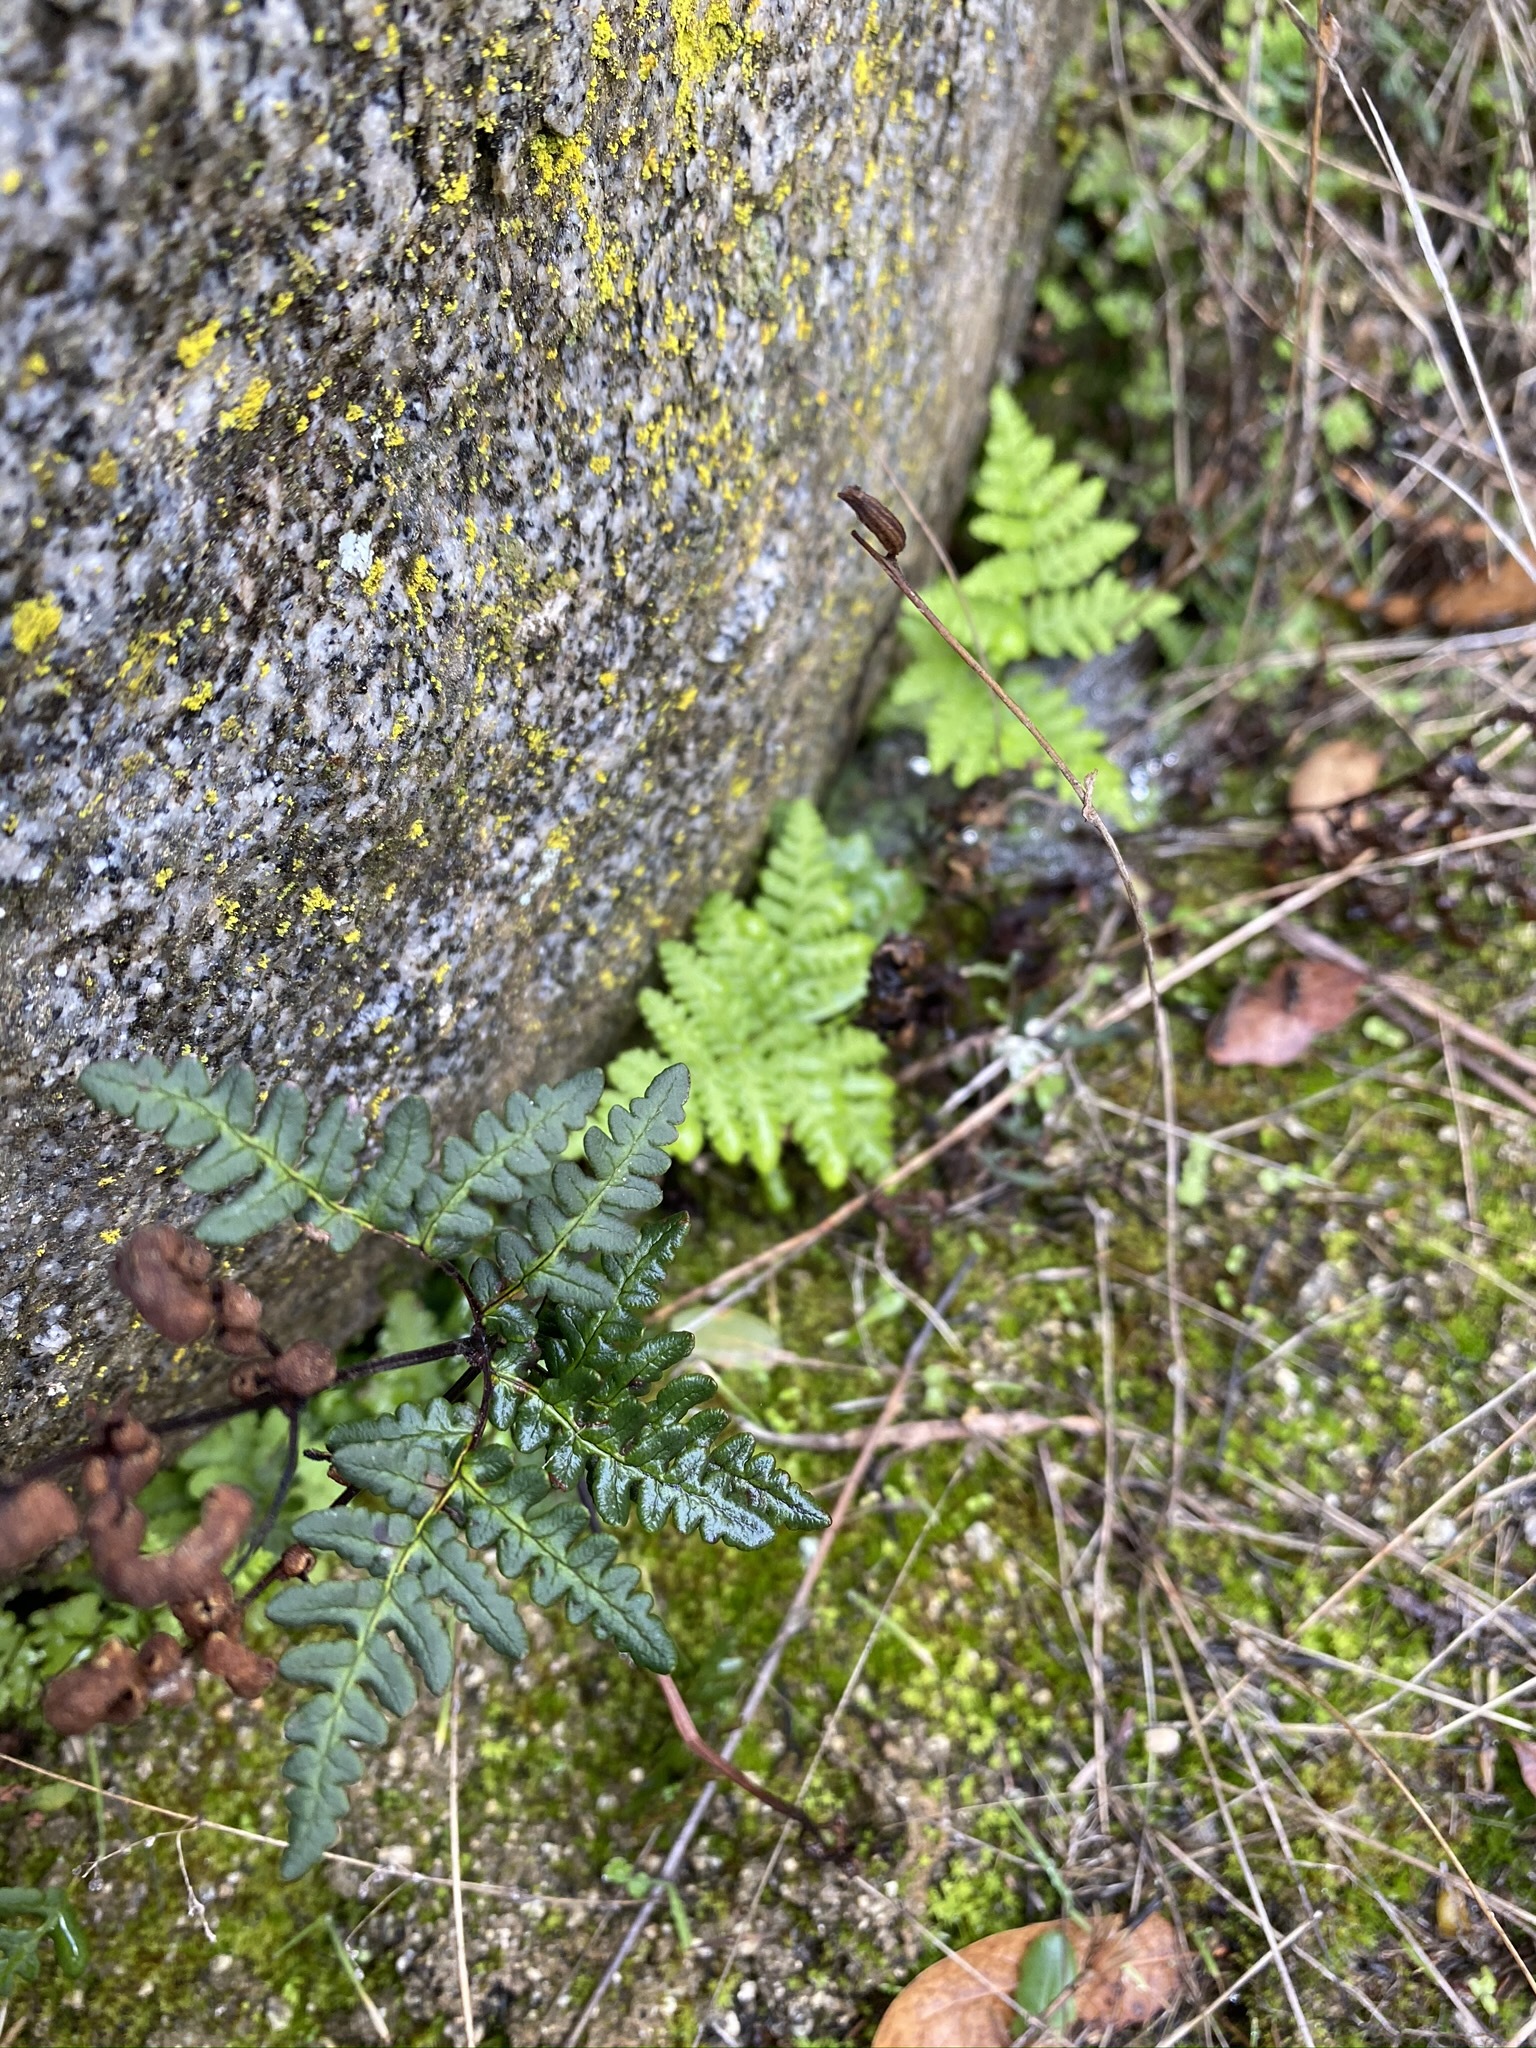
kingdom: Plantae
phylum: Tracheophyta
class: Polypodiopsida
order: Polypodiales
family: Pteridaceae
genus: Pentagramma
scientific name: Pentagramma triangularis
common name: Gold fern
